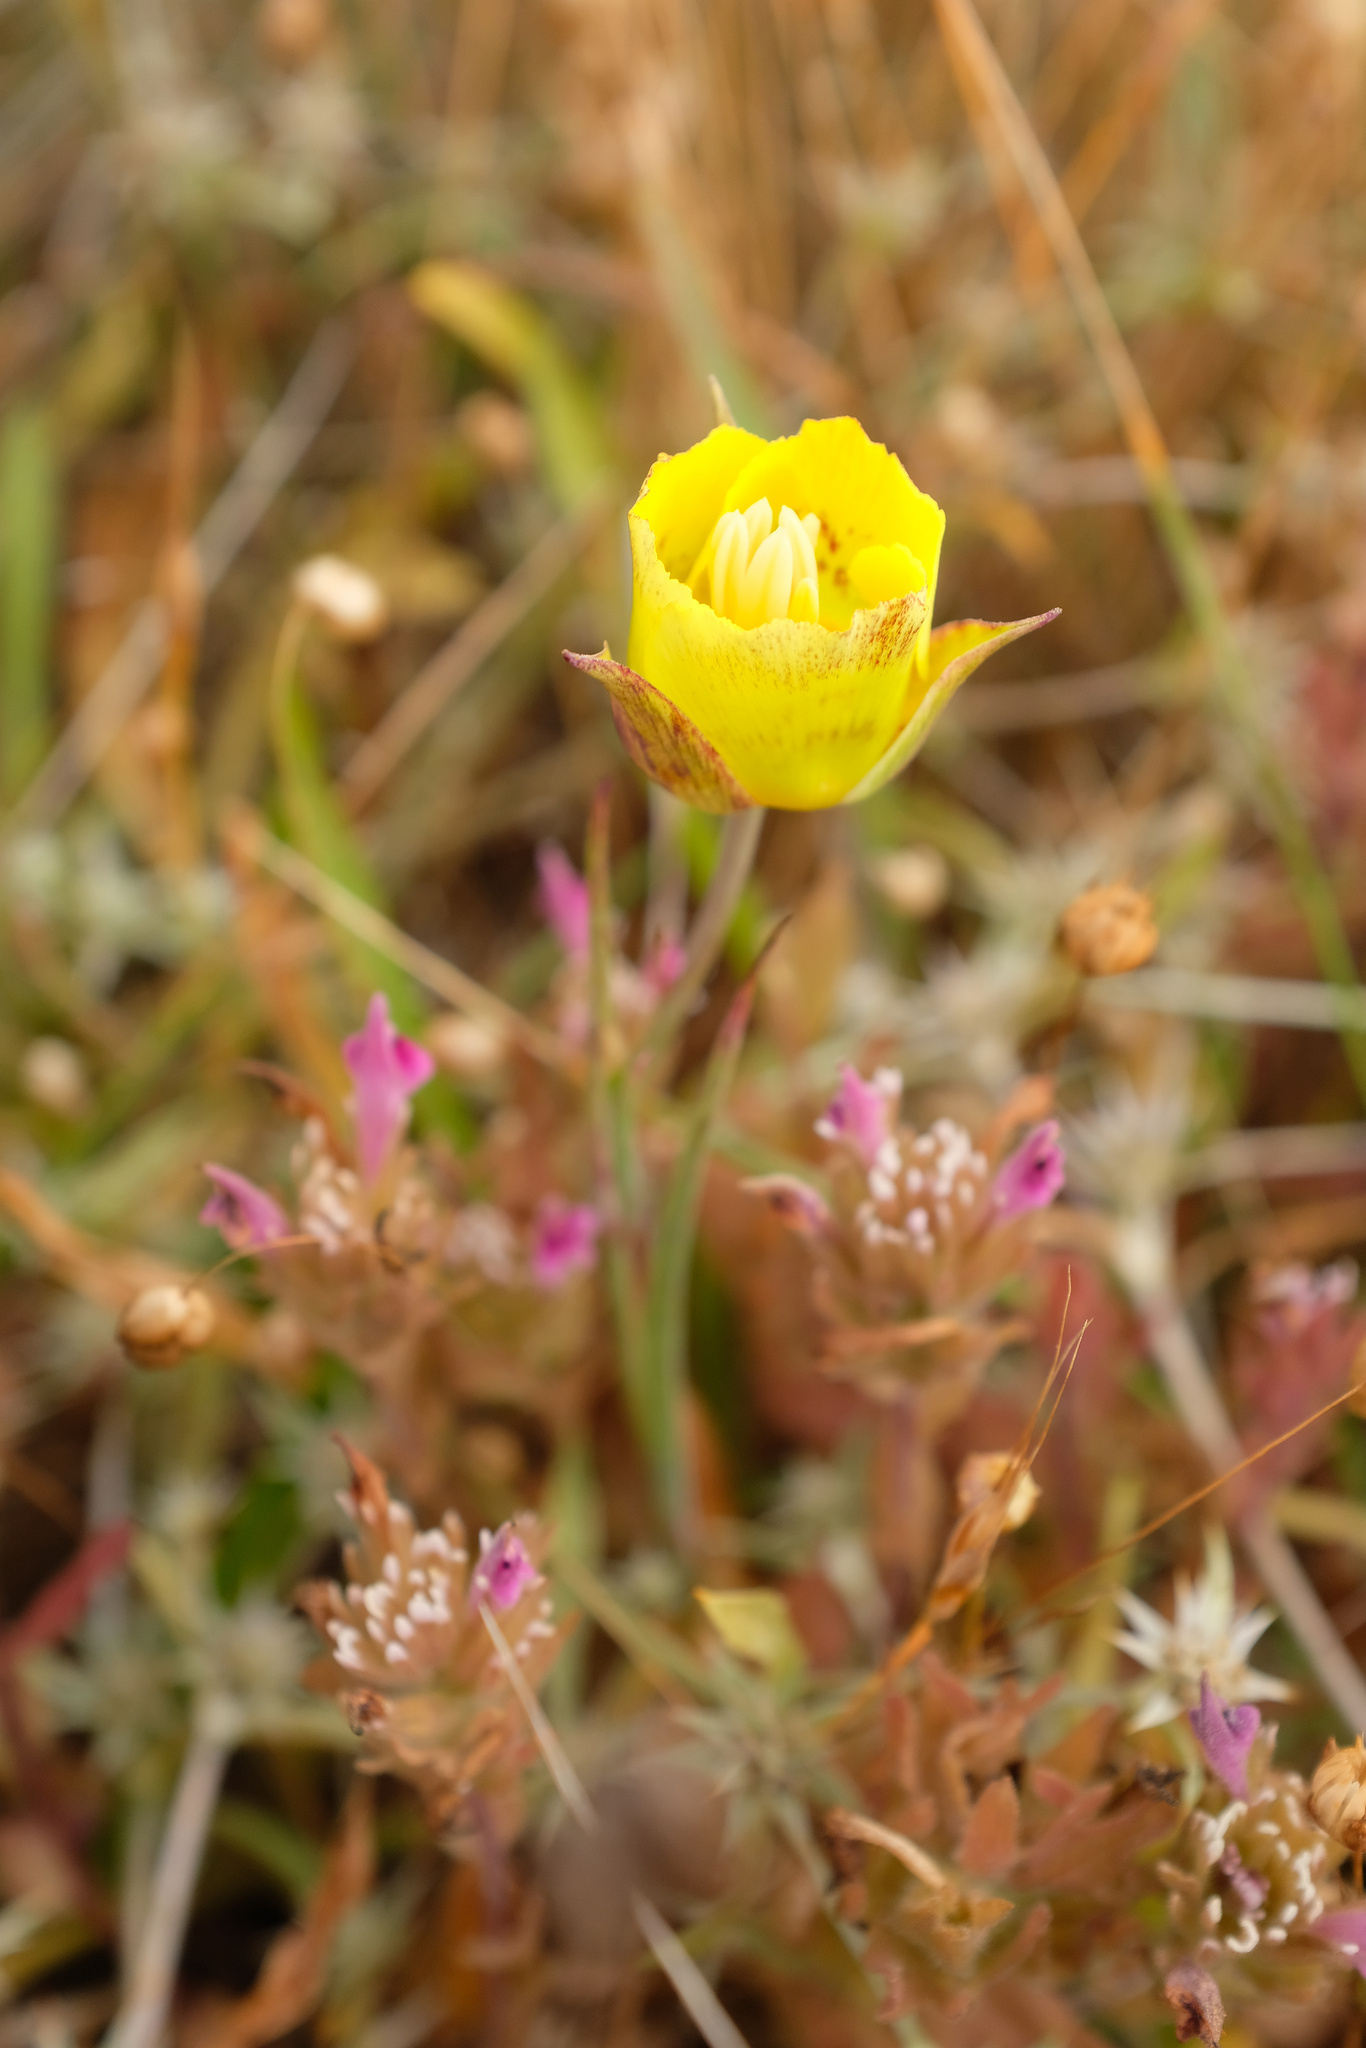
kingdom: Plantae
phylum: Tracheophyta
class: Liliopsida
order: Liliales
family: Liliaceae
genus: Calochortus
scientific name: Calochortus luteus
